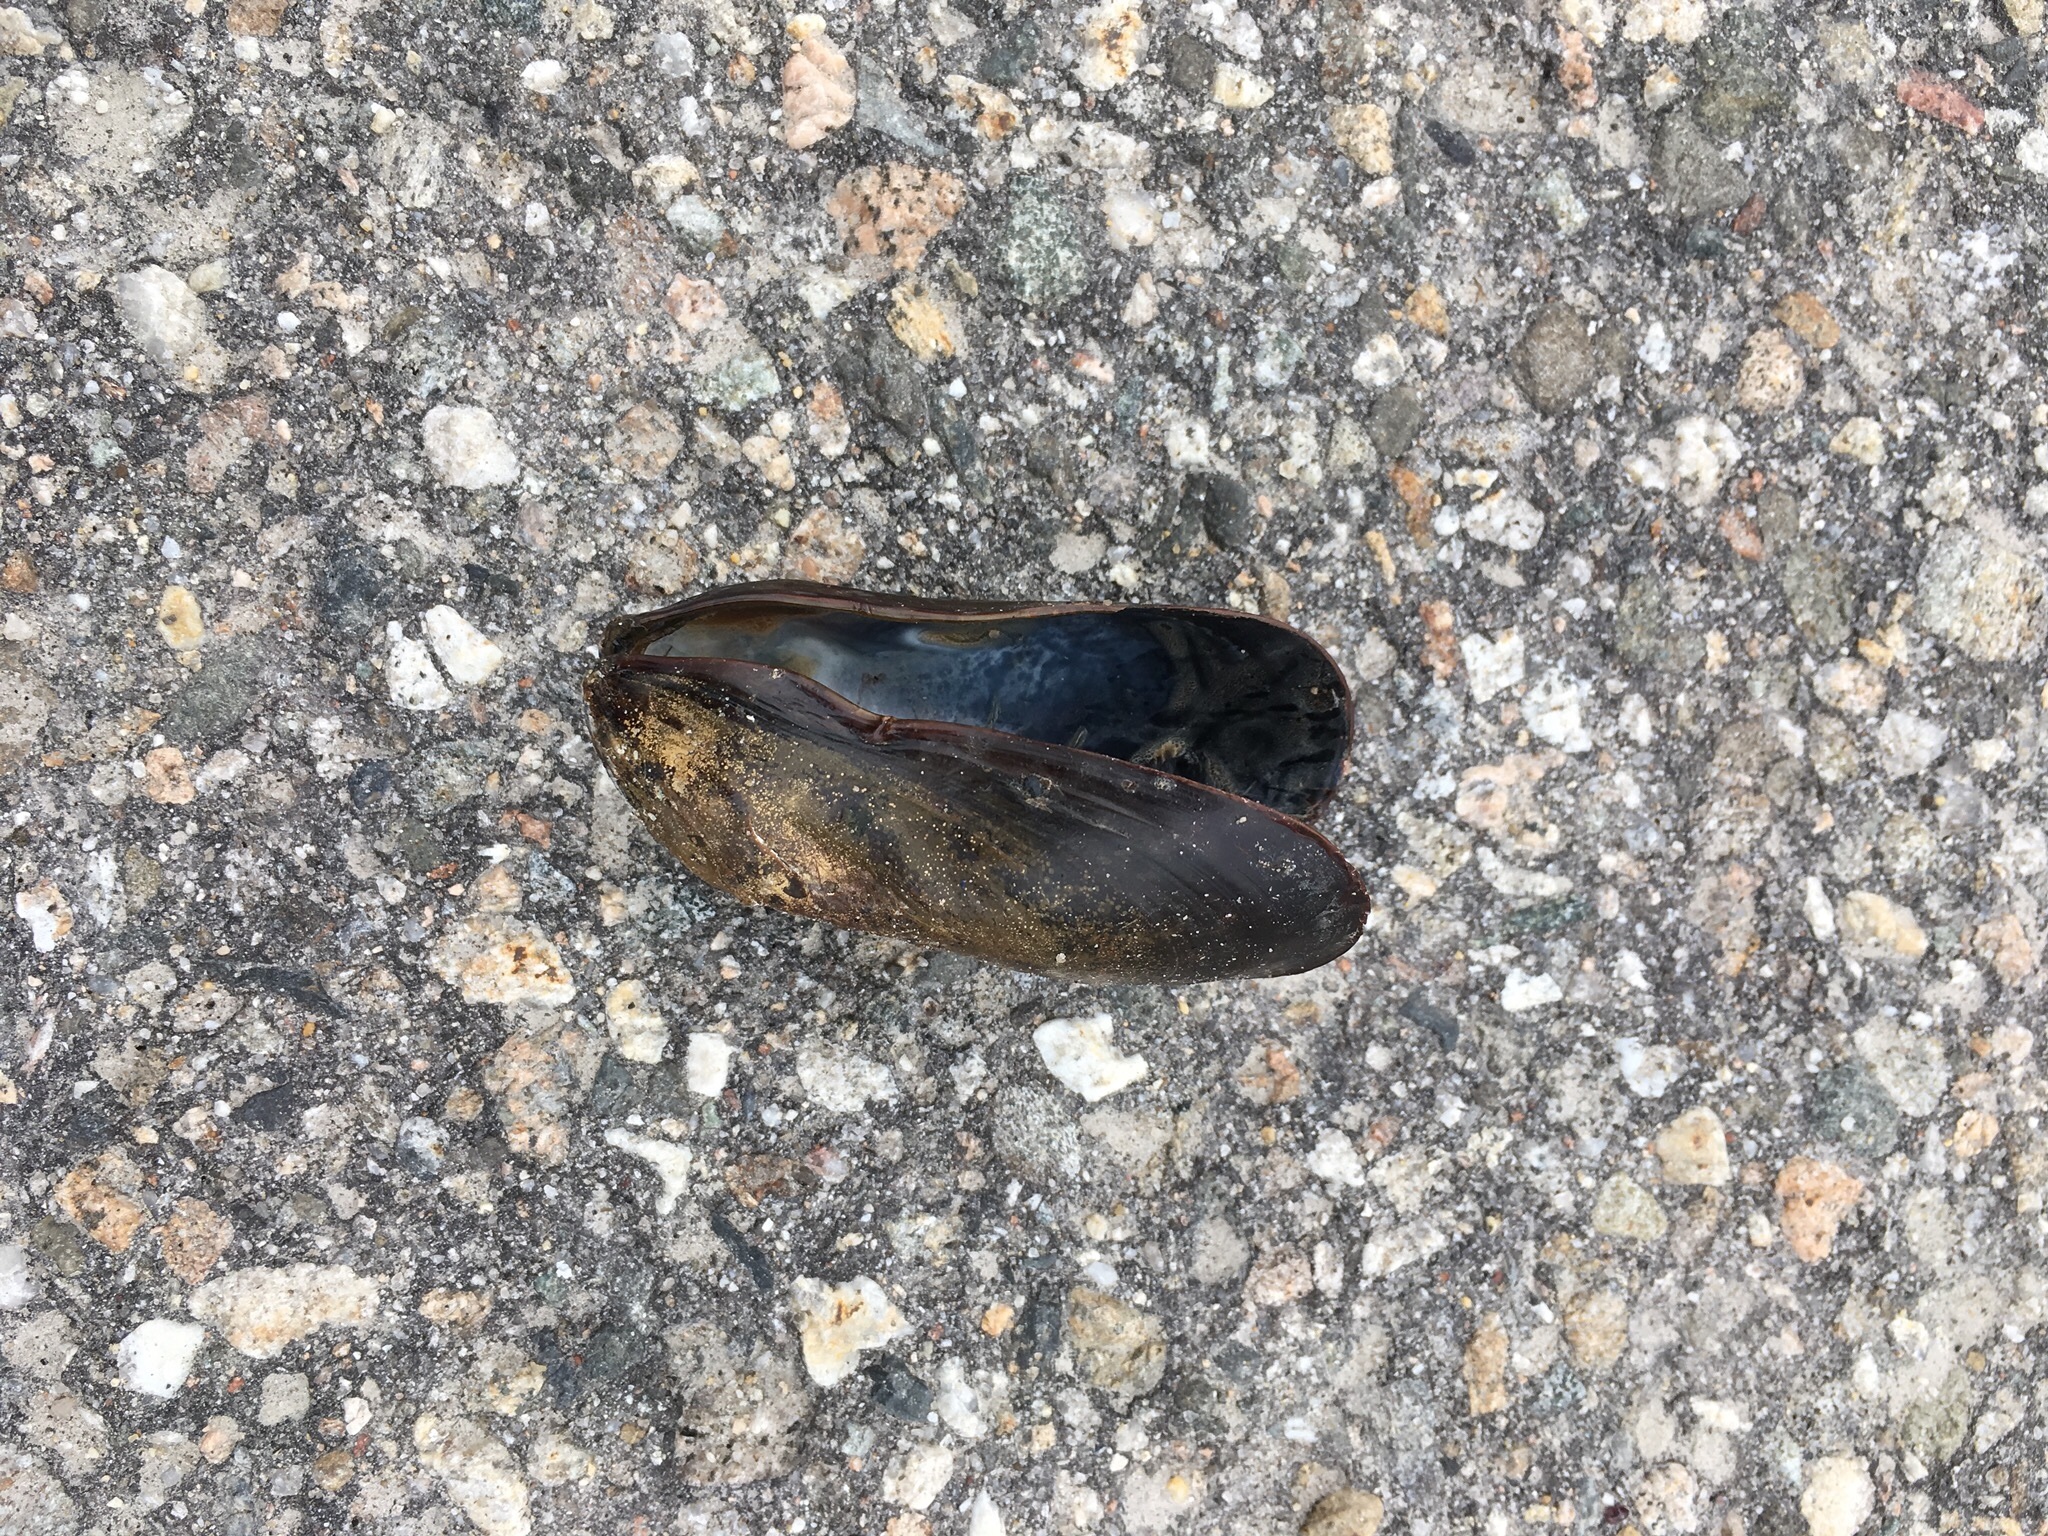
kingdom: Animalia
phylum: Mollusca
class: Bivalvia
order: Mytilida
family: Mytilidae
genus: Mytilus
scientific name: Mytilus edulis
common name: Blue mussel
